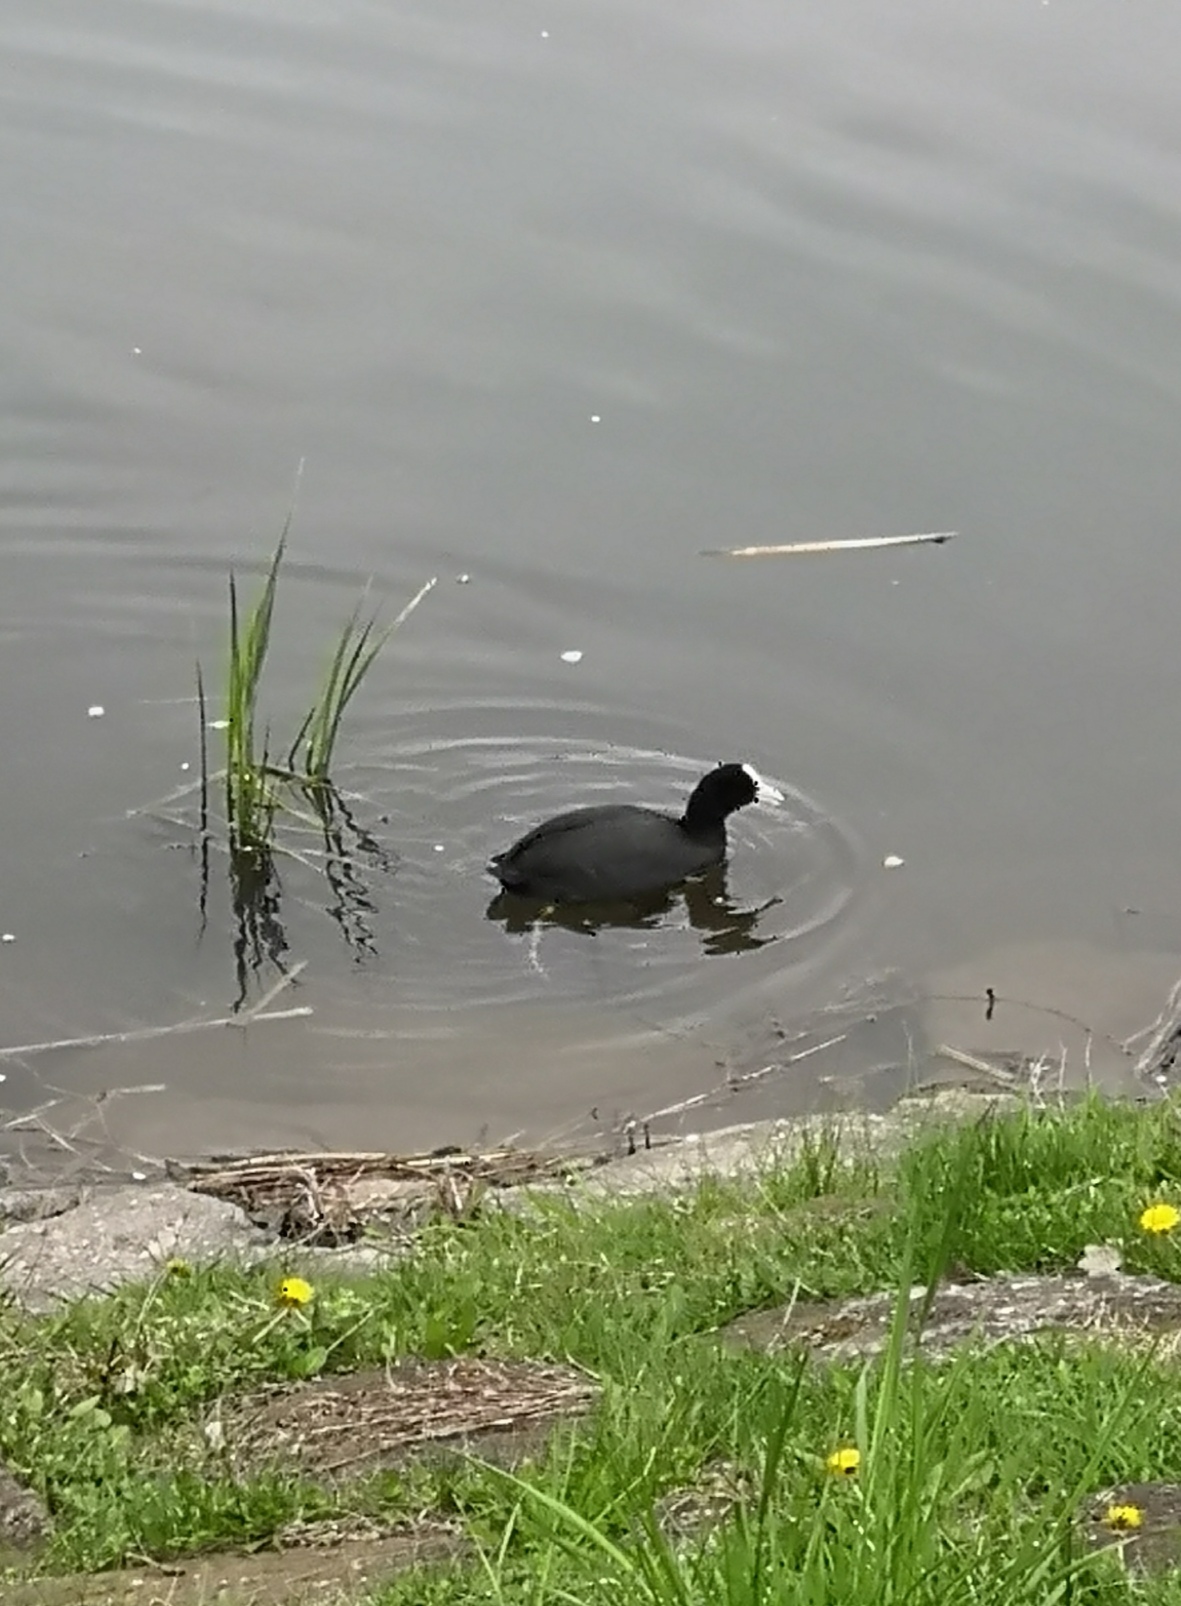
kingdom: Animalia
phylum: Chordata
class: Aves
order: Gruiformes
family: Rallidae
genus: Fulica
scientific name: Fulica atra
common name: Eurasian coot
